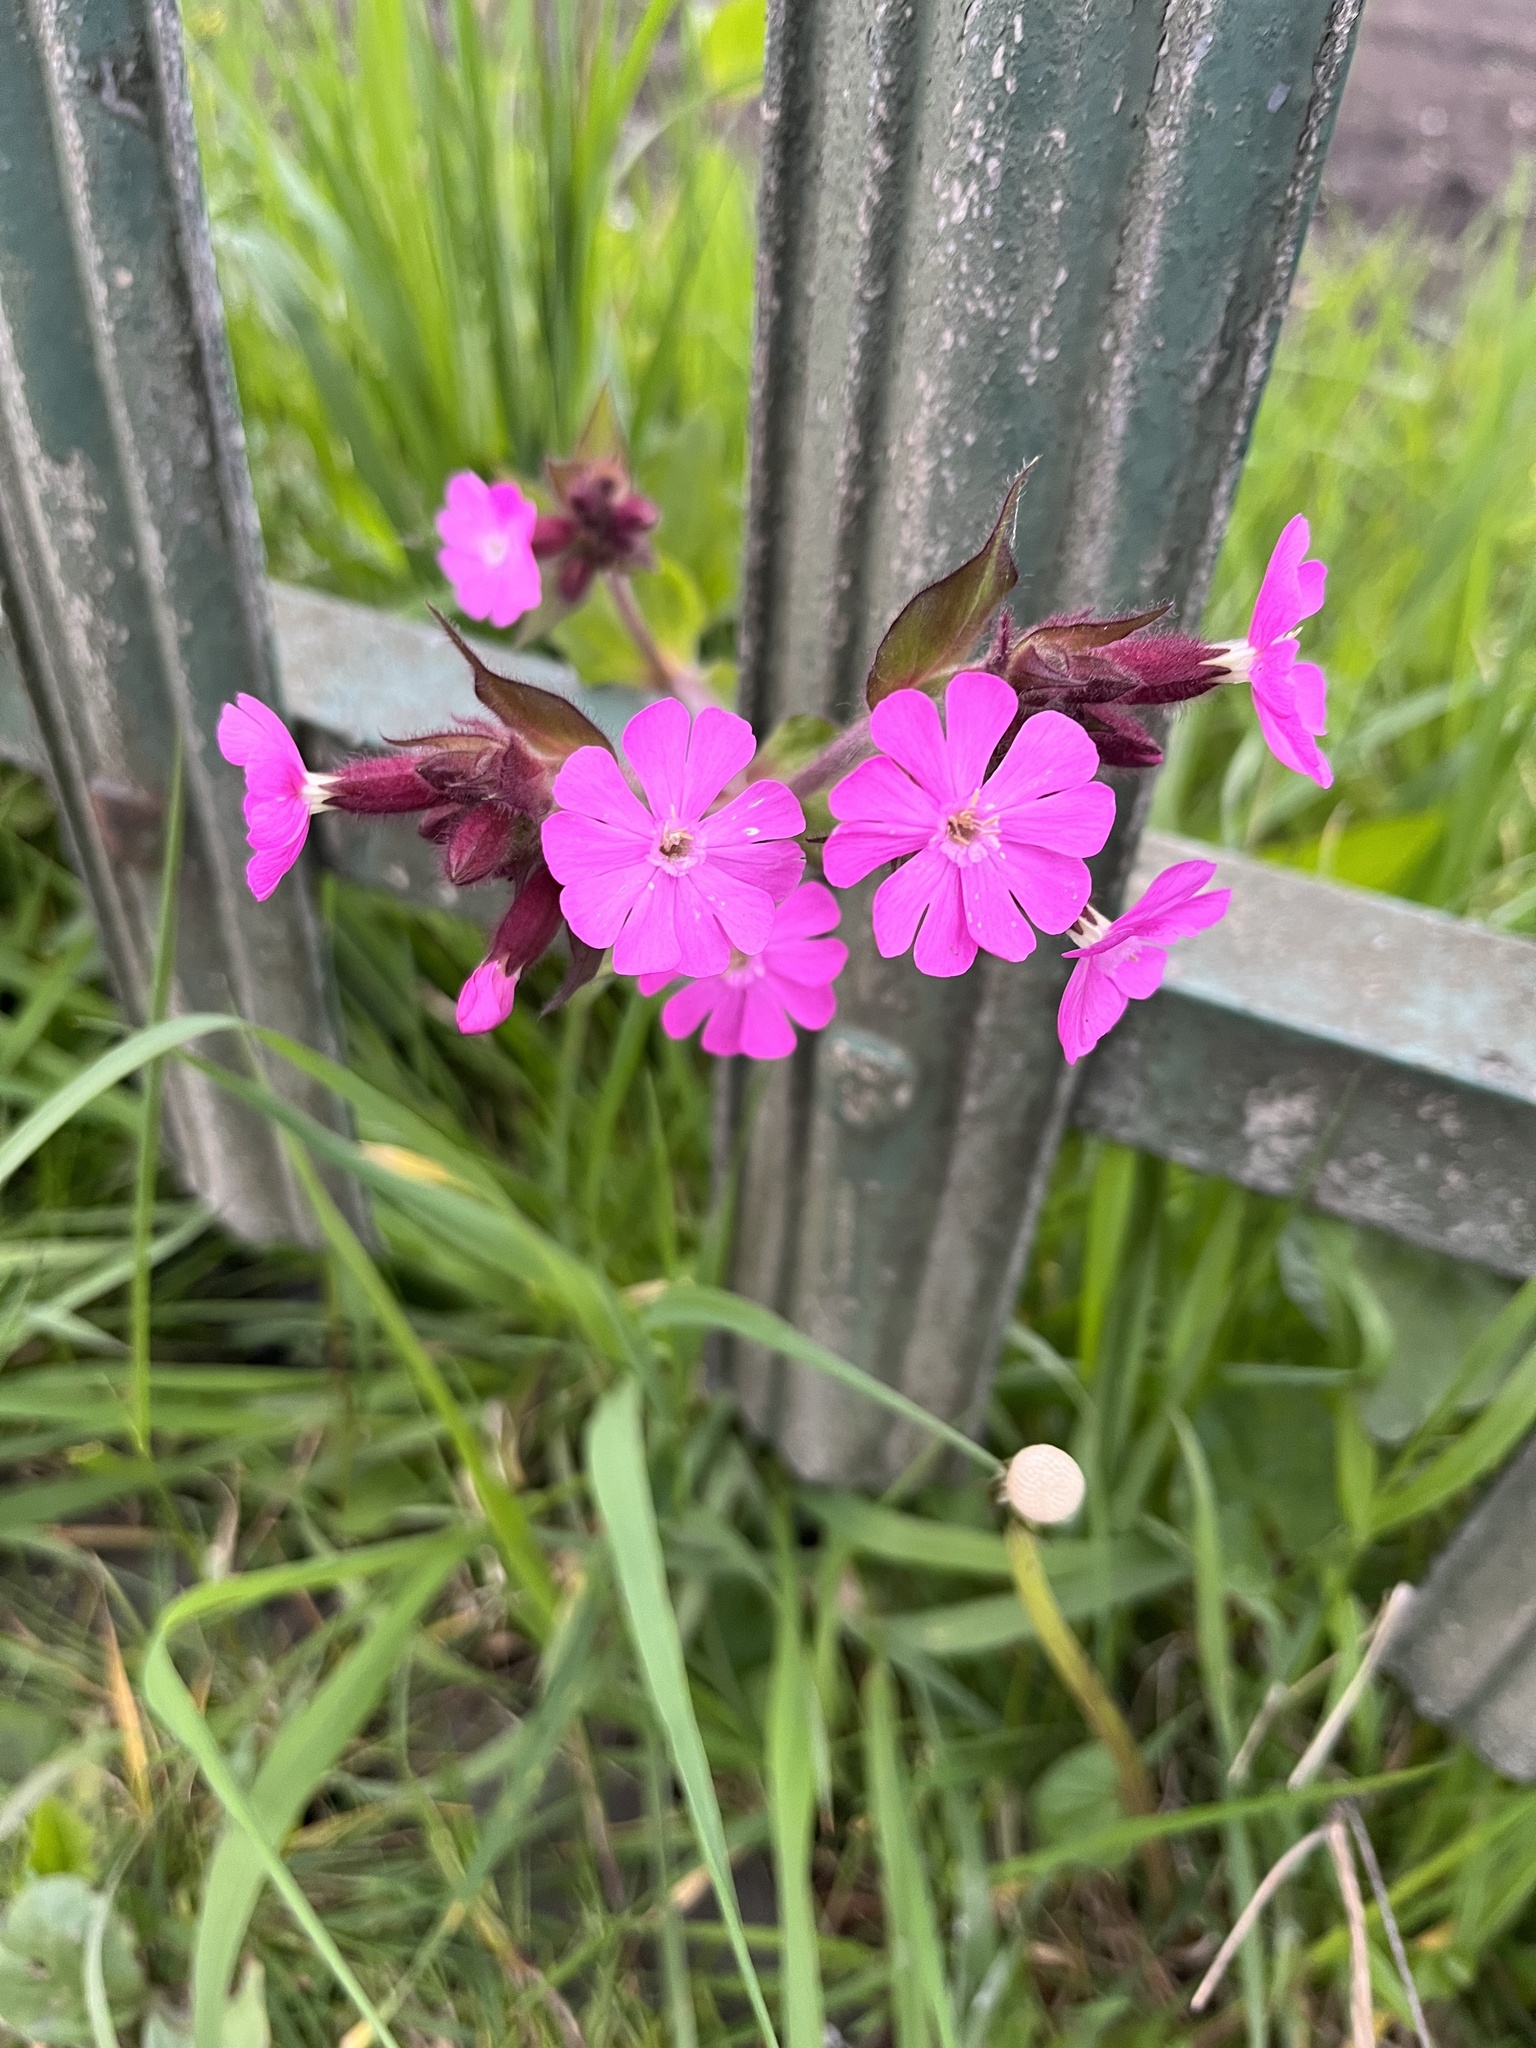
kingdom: Plantae
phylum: Tracheophyta
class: Magnoliopsida
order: Caryophyllales
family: Caryophyllaceae
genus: Silene
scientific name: Silene dioica
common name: Red campion
